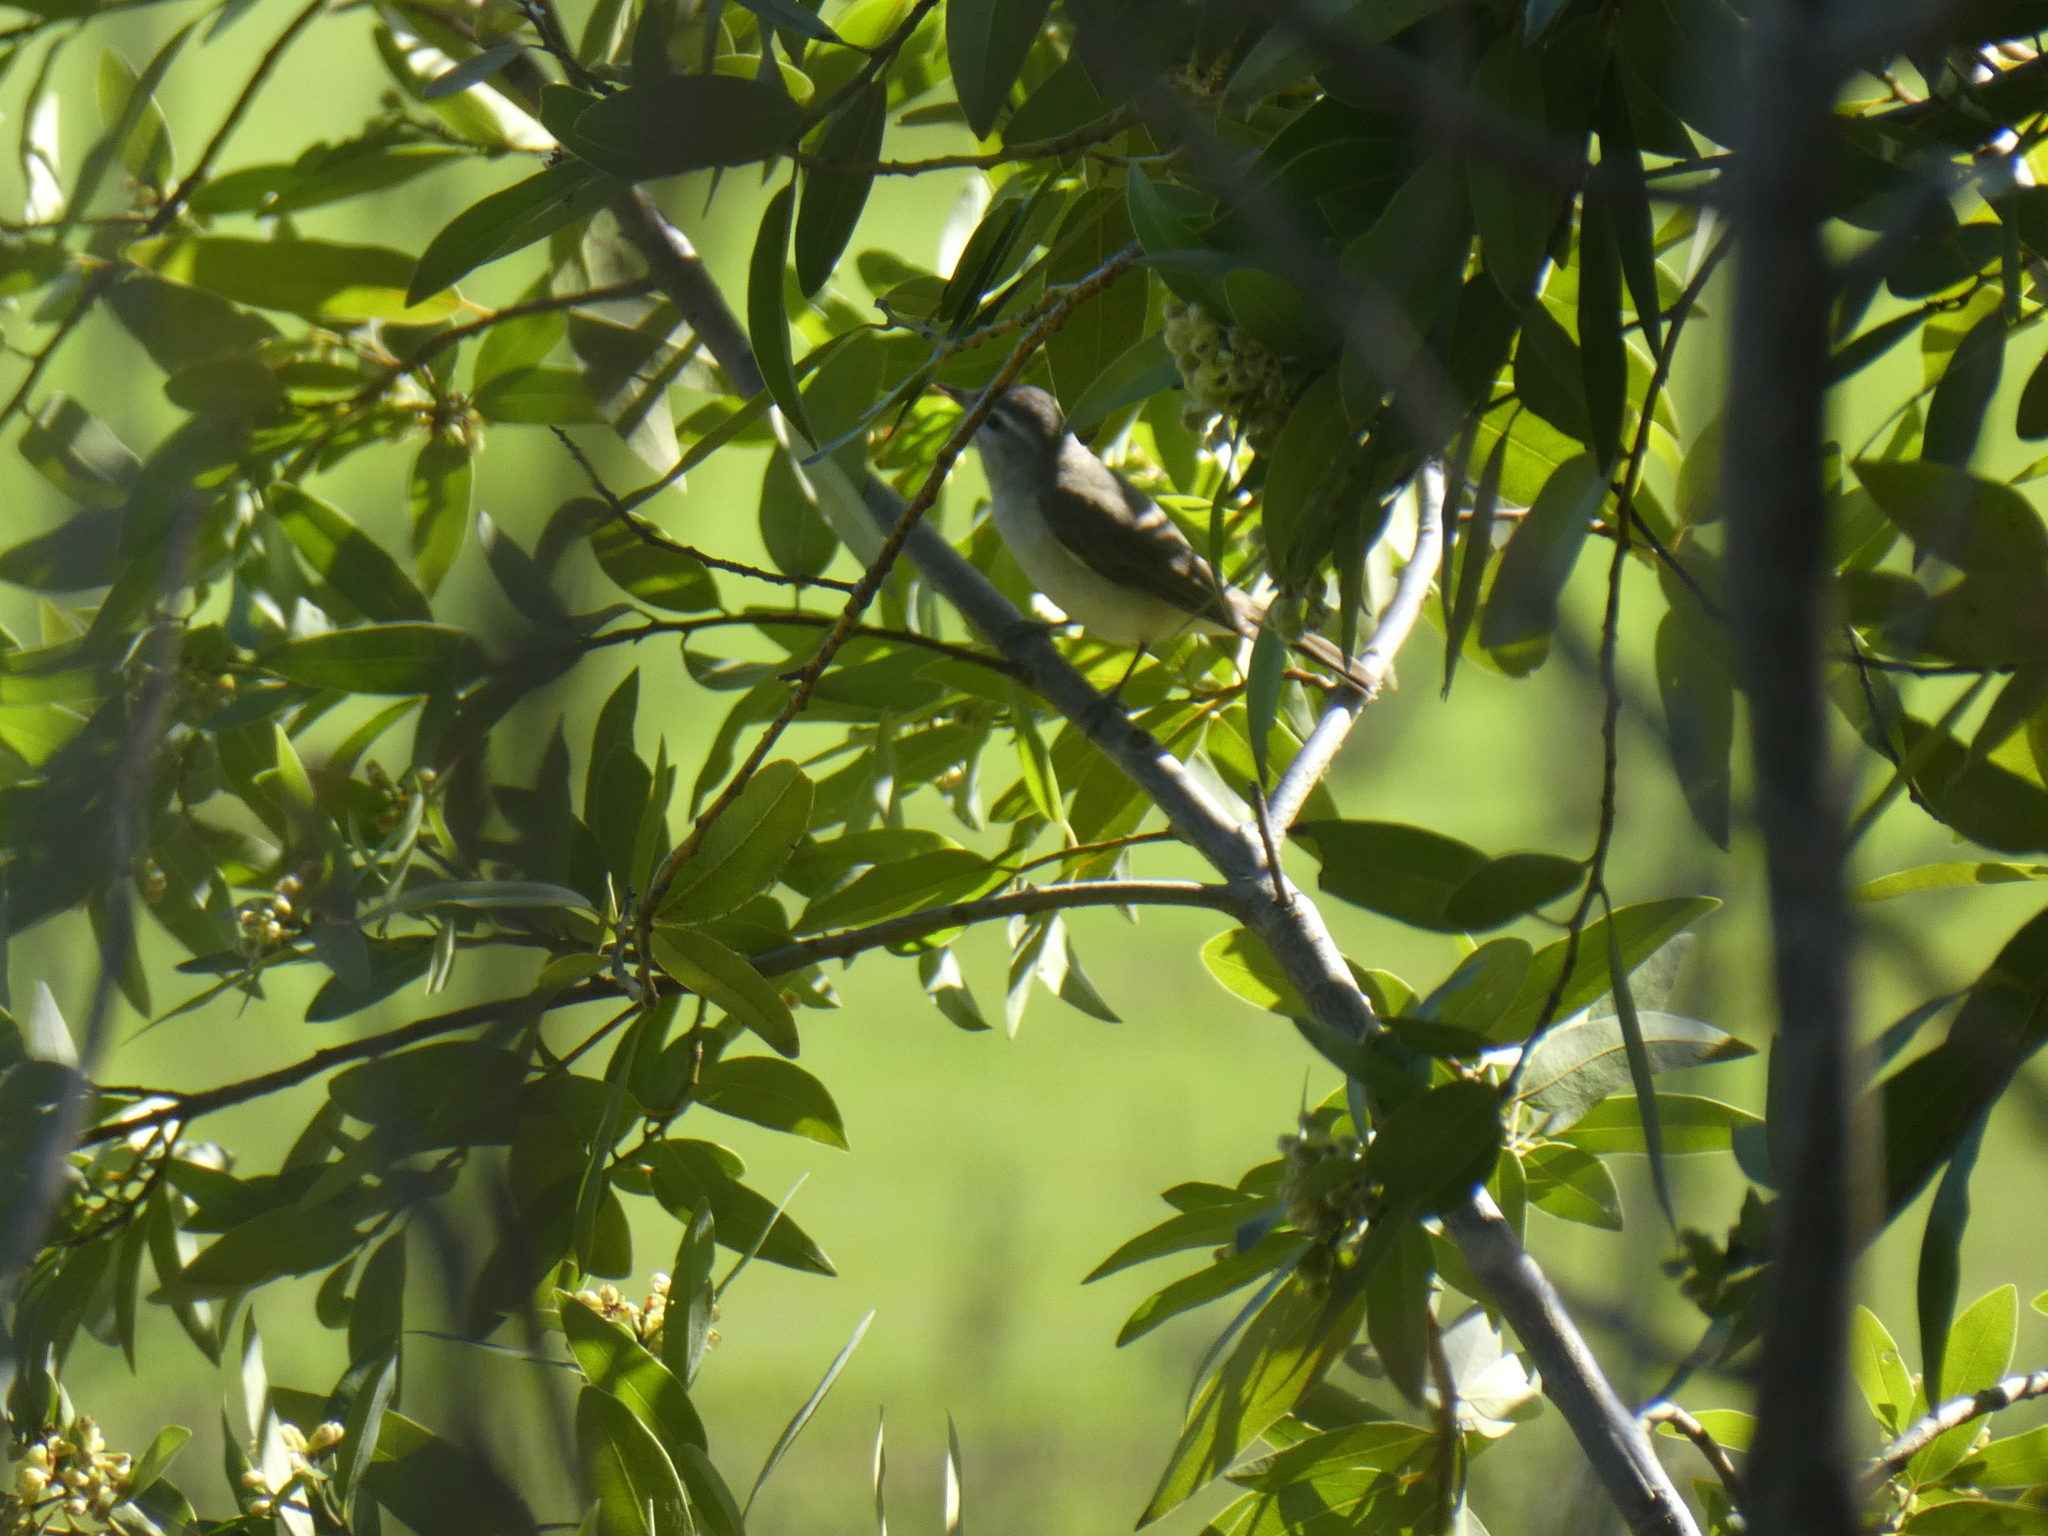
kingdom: Animalia
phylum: Chordata
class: Aves
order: Passeriformes
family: Vireonidae
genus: Vireo
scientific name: Vireo gilvus
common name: Warbling vireo
